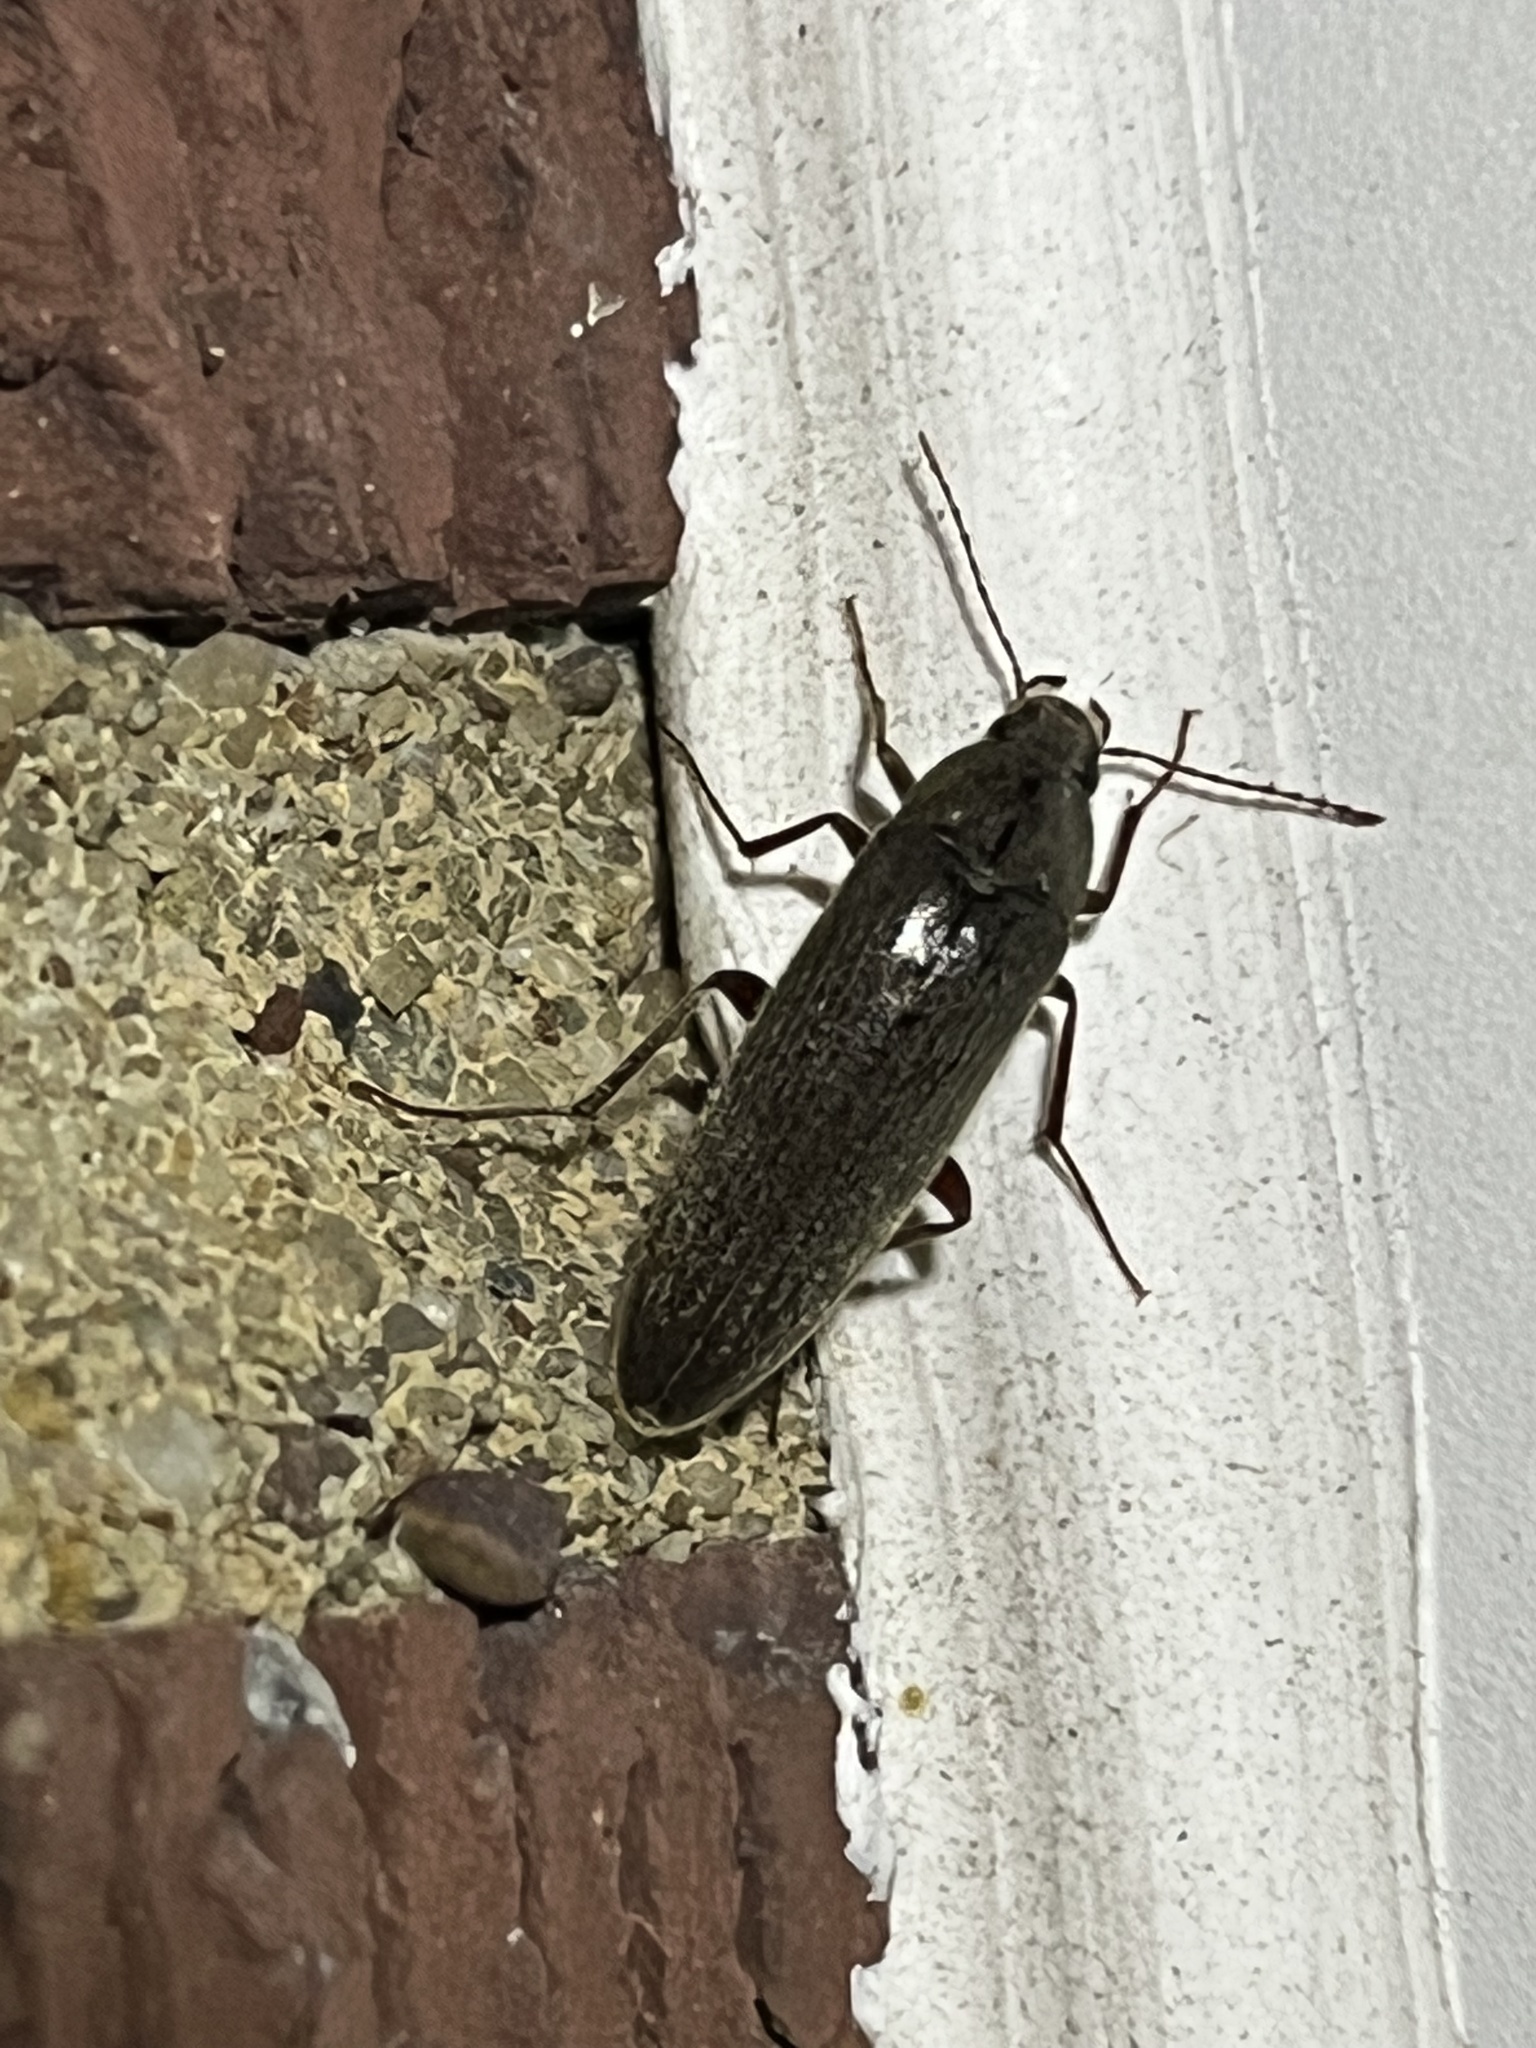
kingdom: Animalia
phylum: Arthropoda
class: Insecta
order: Coleoptera
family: Synchroidae
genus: Synchroa
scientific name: Synchroa punctata
